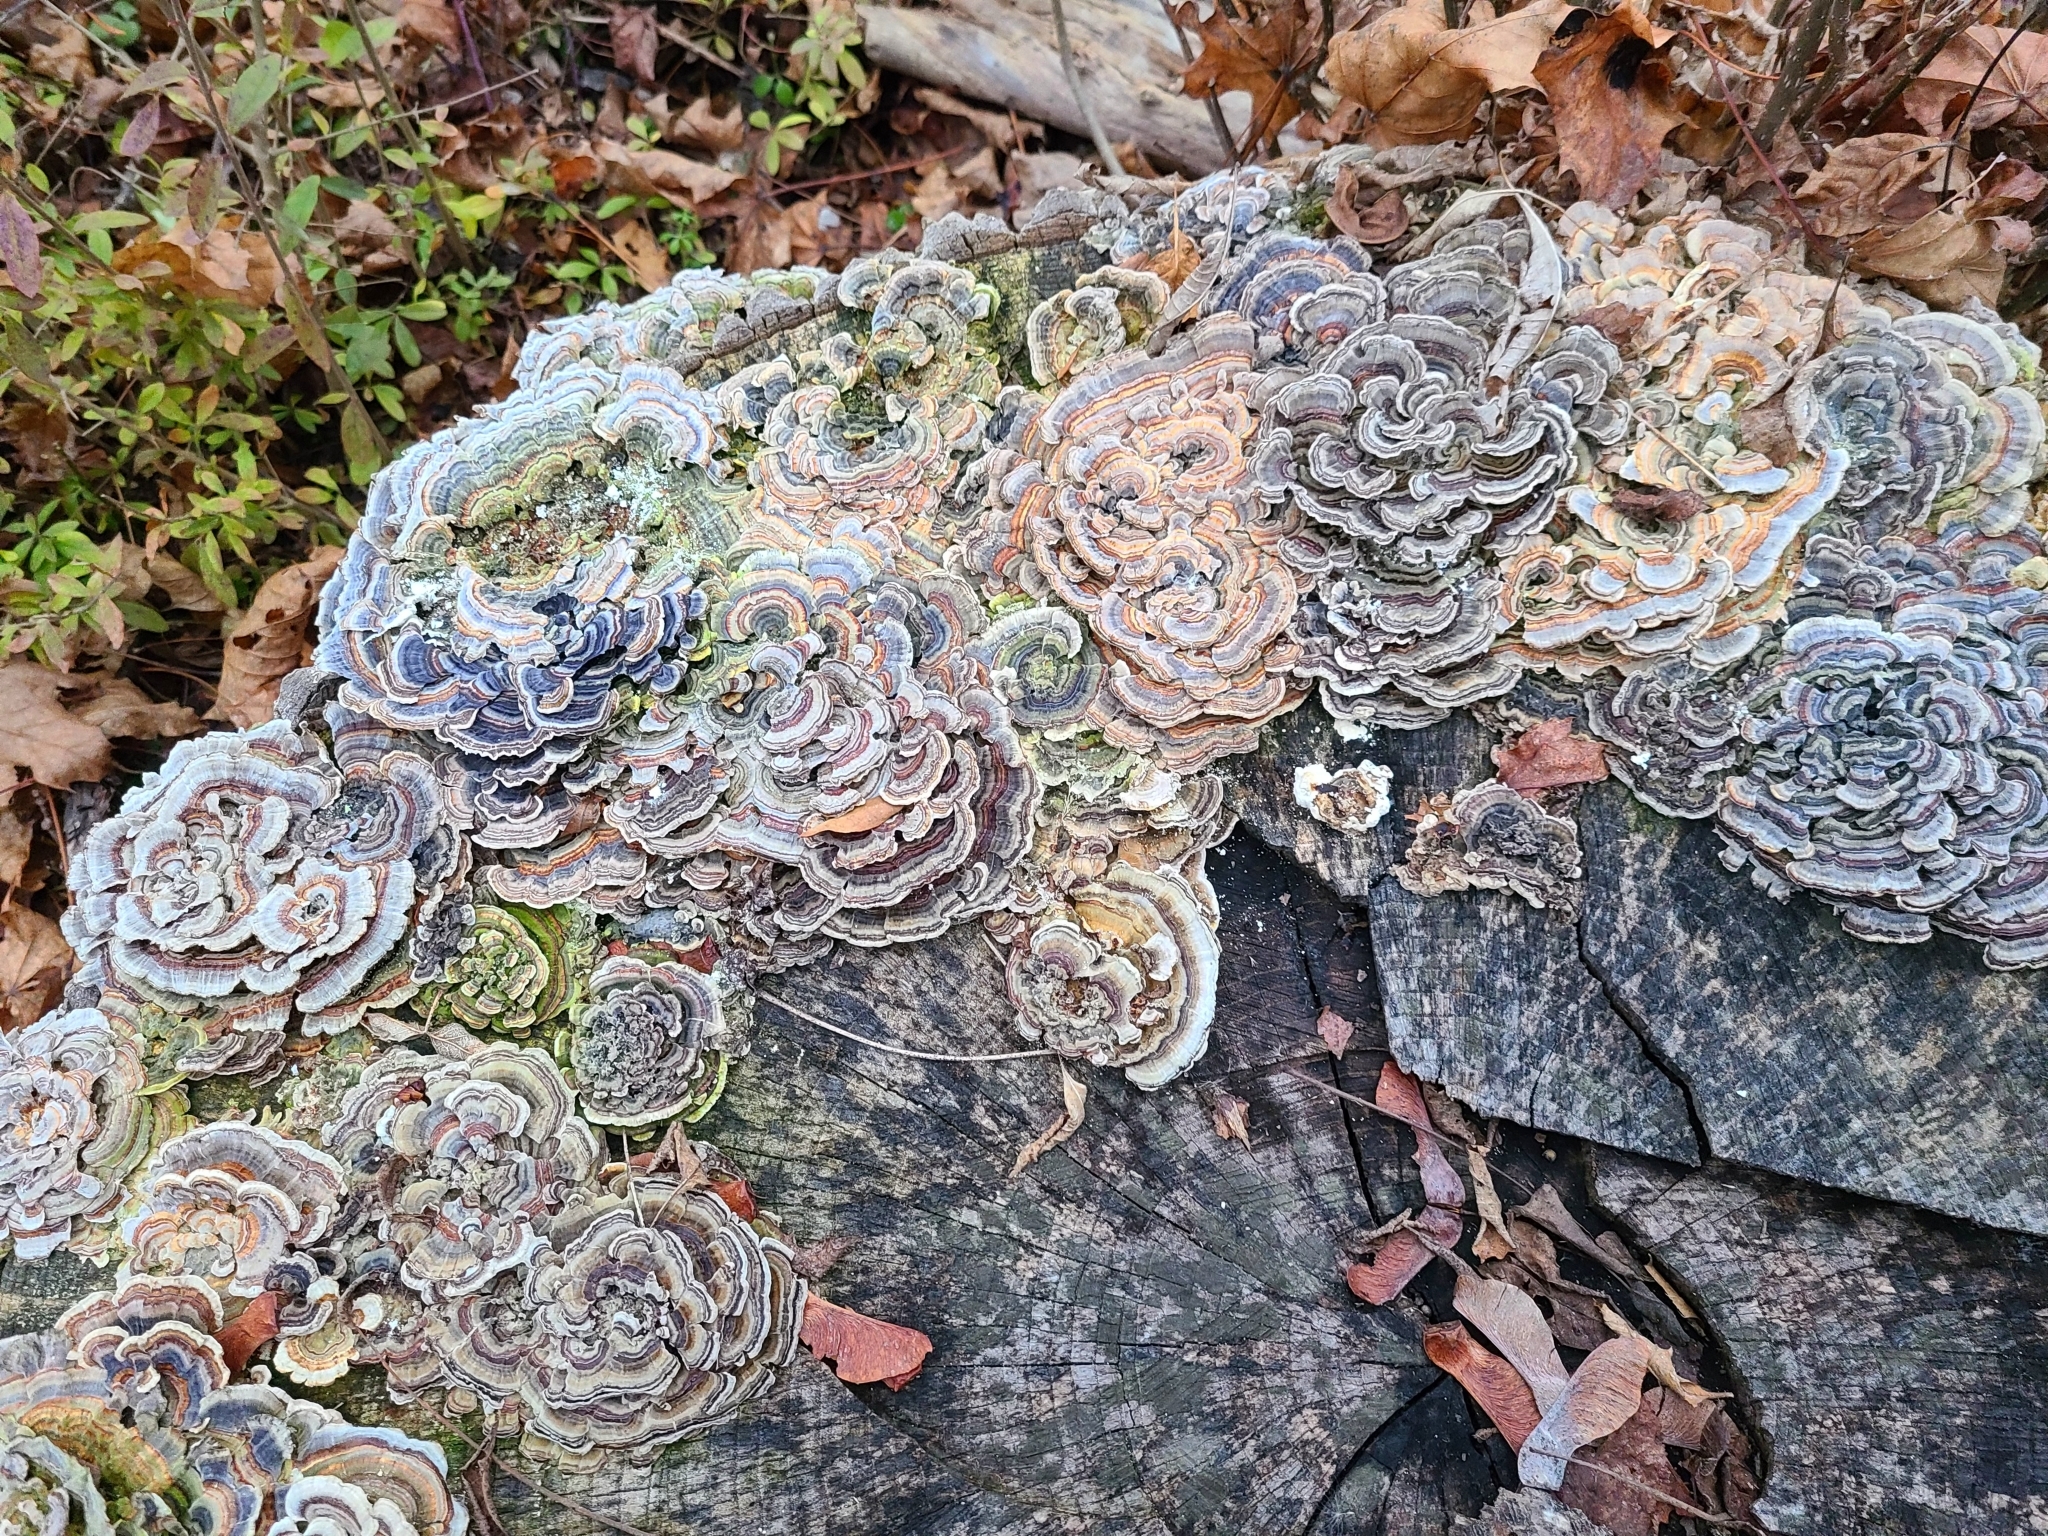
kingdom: Fungi
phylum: Basidiomycota
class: Agaricomycetes
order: Polyporales
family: Polyporaceae
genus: Trametes
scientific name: Trametes versicolor
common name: Turkeytail
